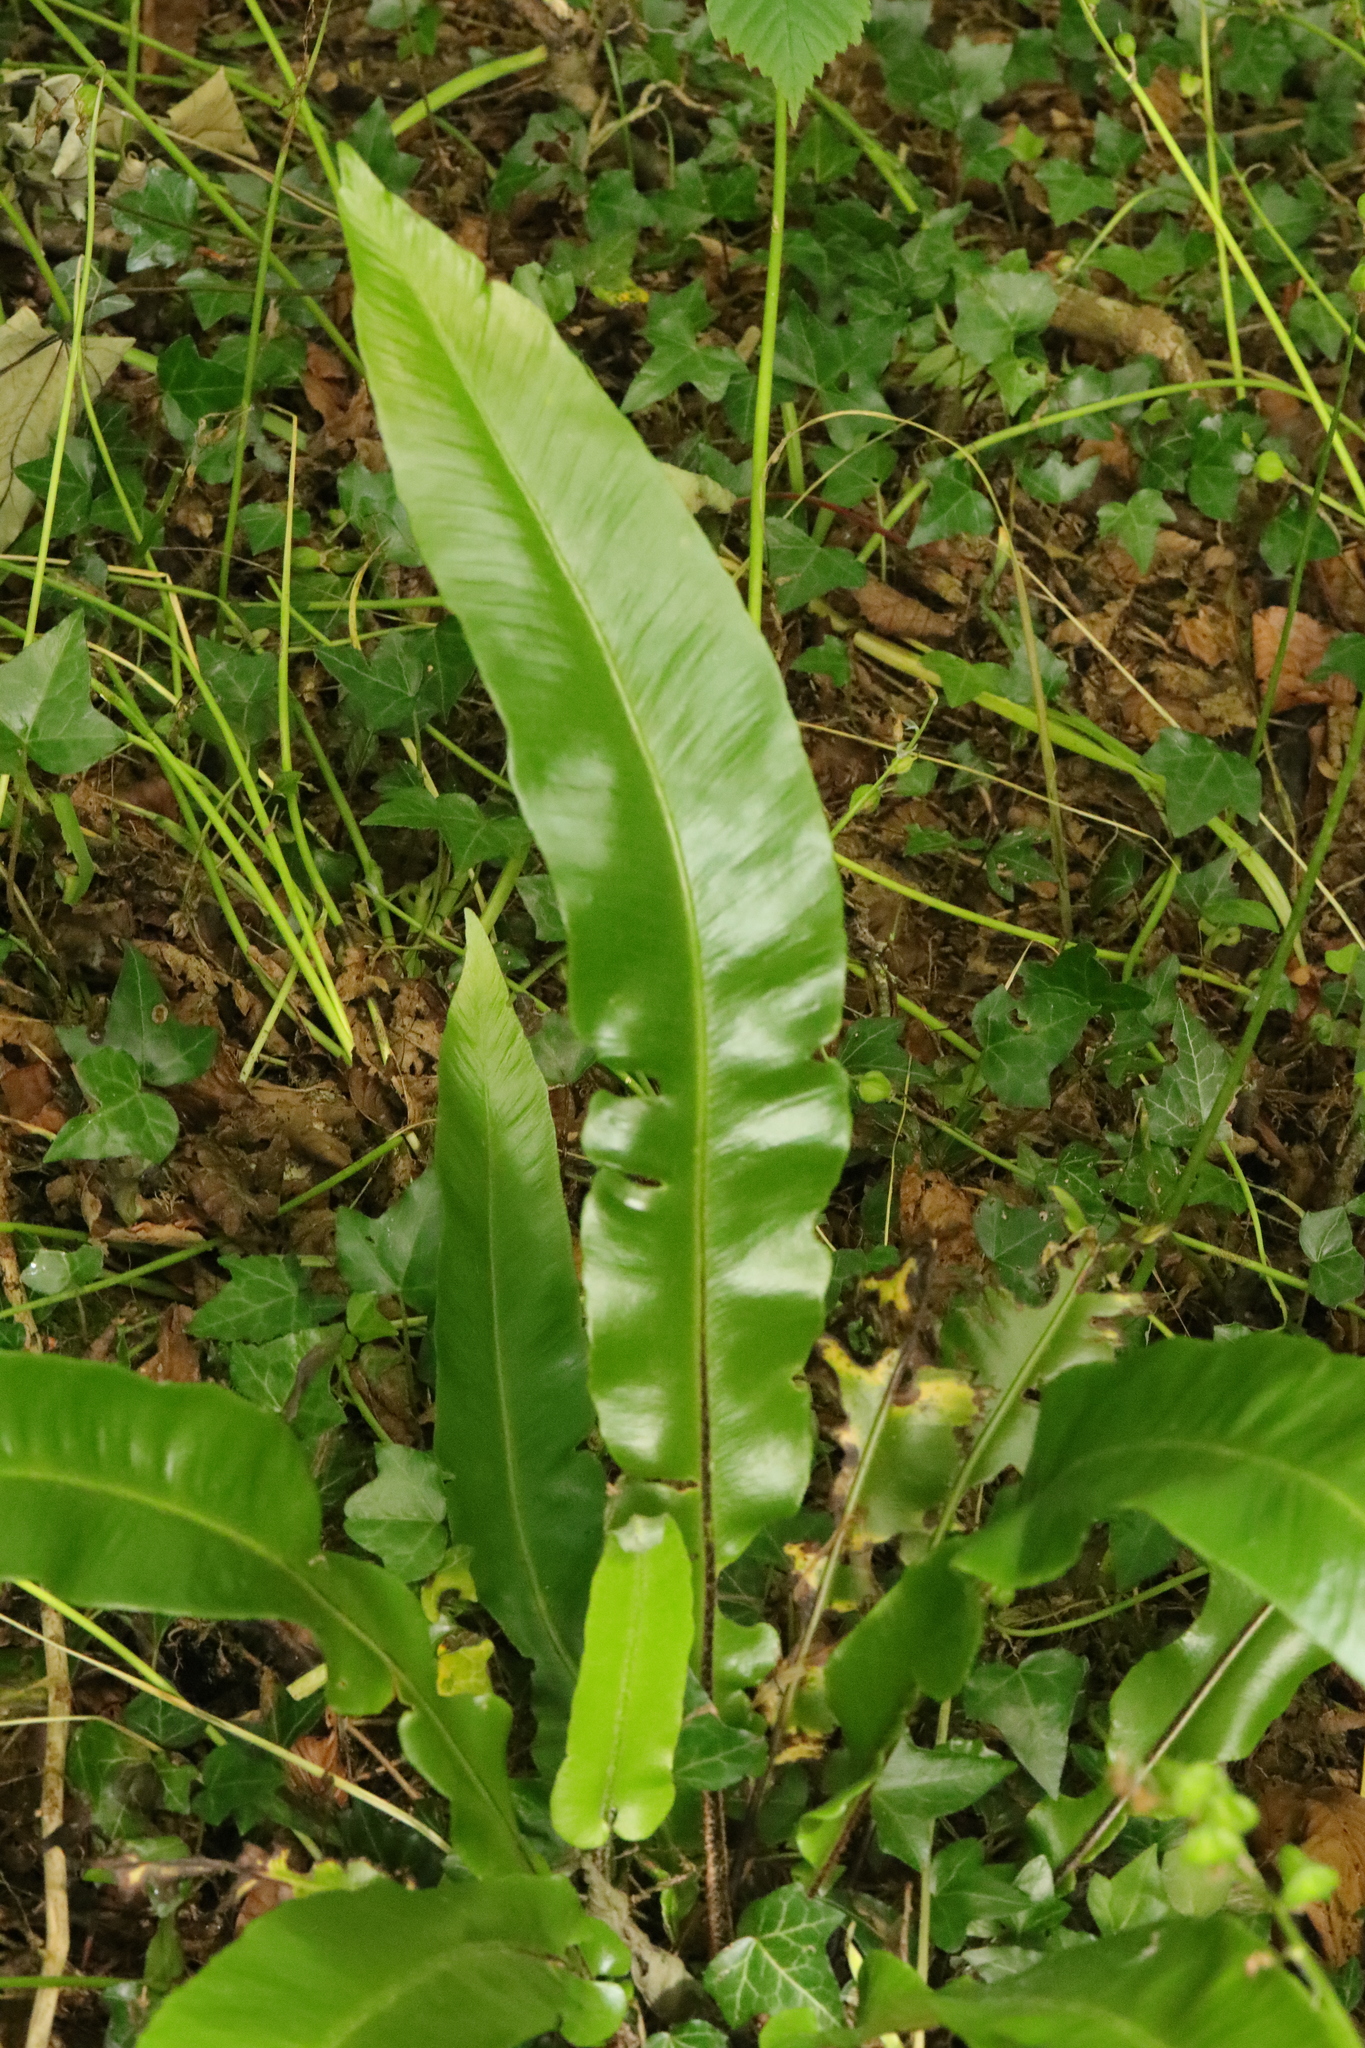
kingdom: Plantae
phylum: Tracheophyta
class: Polypodiopsida
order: Polypodiales
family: Aspleniaceae
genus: Asplenium
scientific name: Asplenium scolopendrium
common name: Hart's-tongue fern
